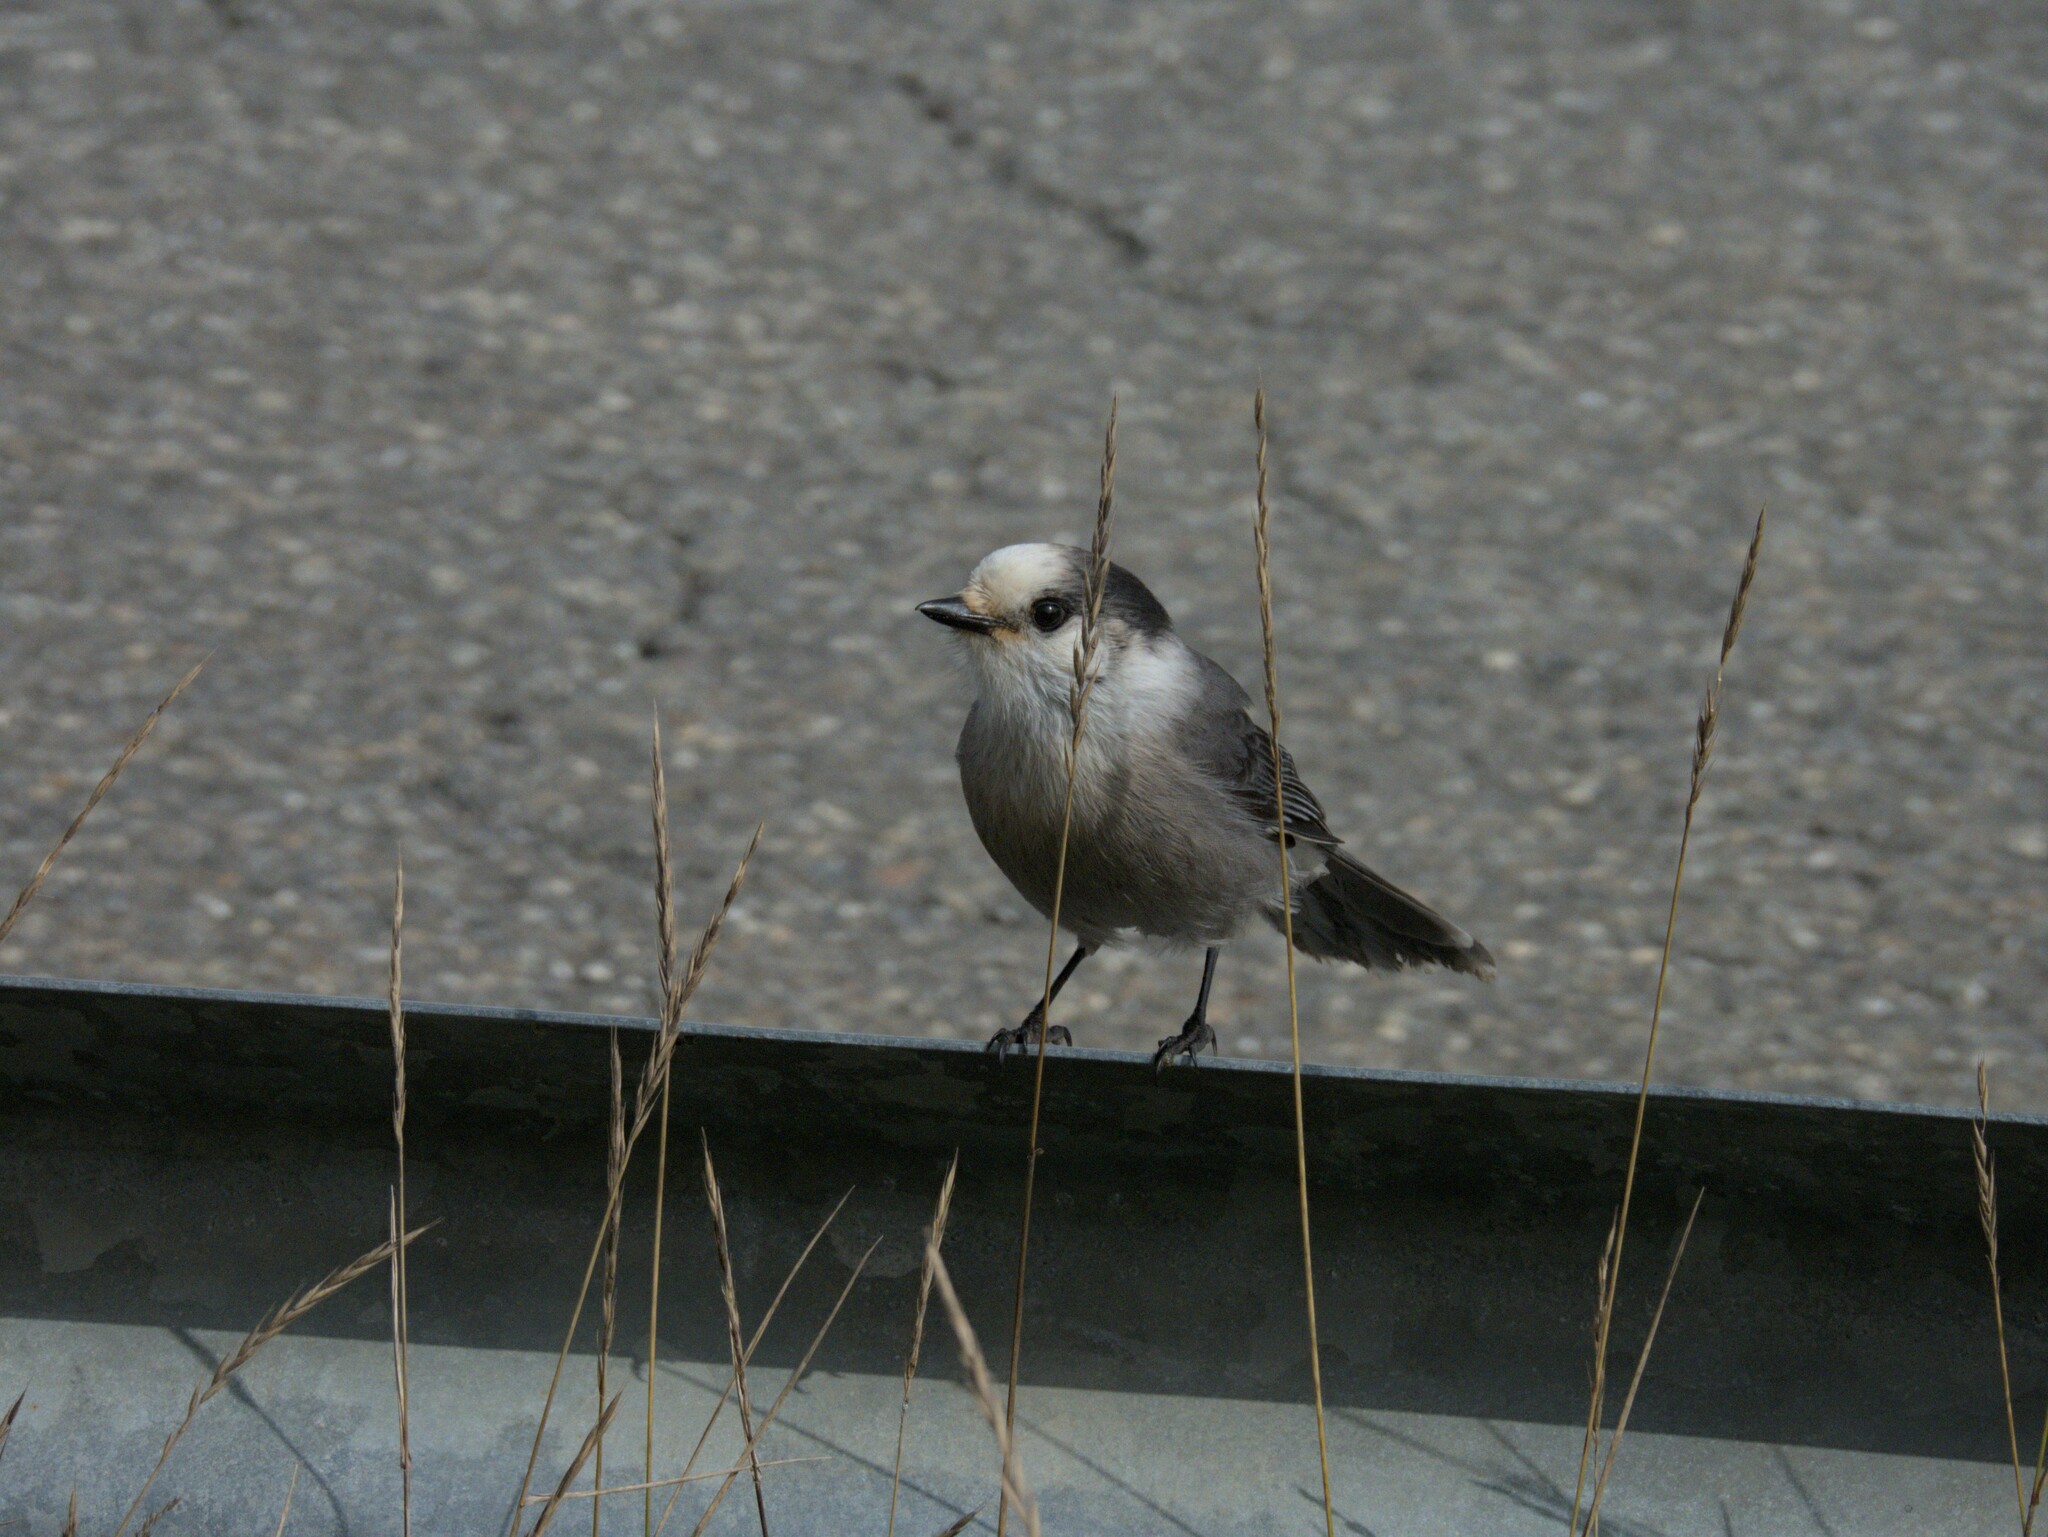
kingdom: Animalia
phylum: Chordata
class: Aves
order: Passeriformes
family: Corvidae
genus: Perisoreus
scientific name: Perisoreus canadensis
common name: Gray jay
